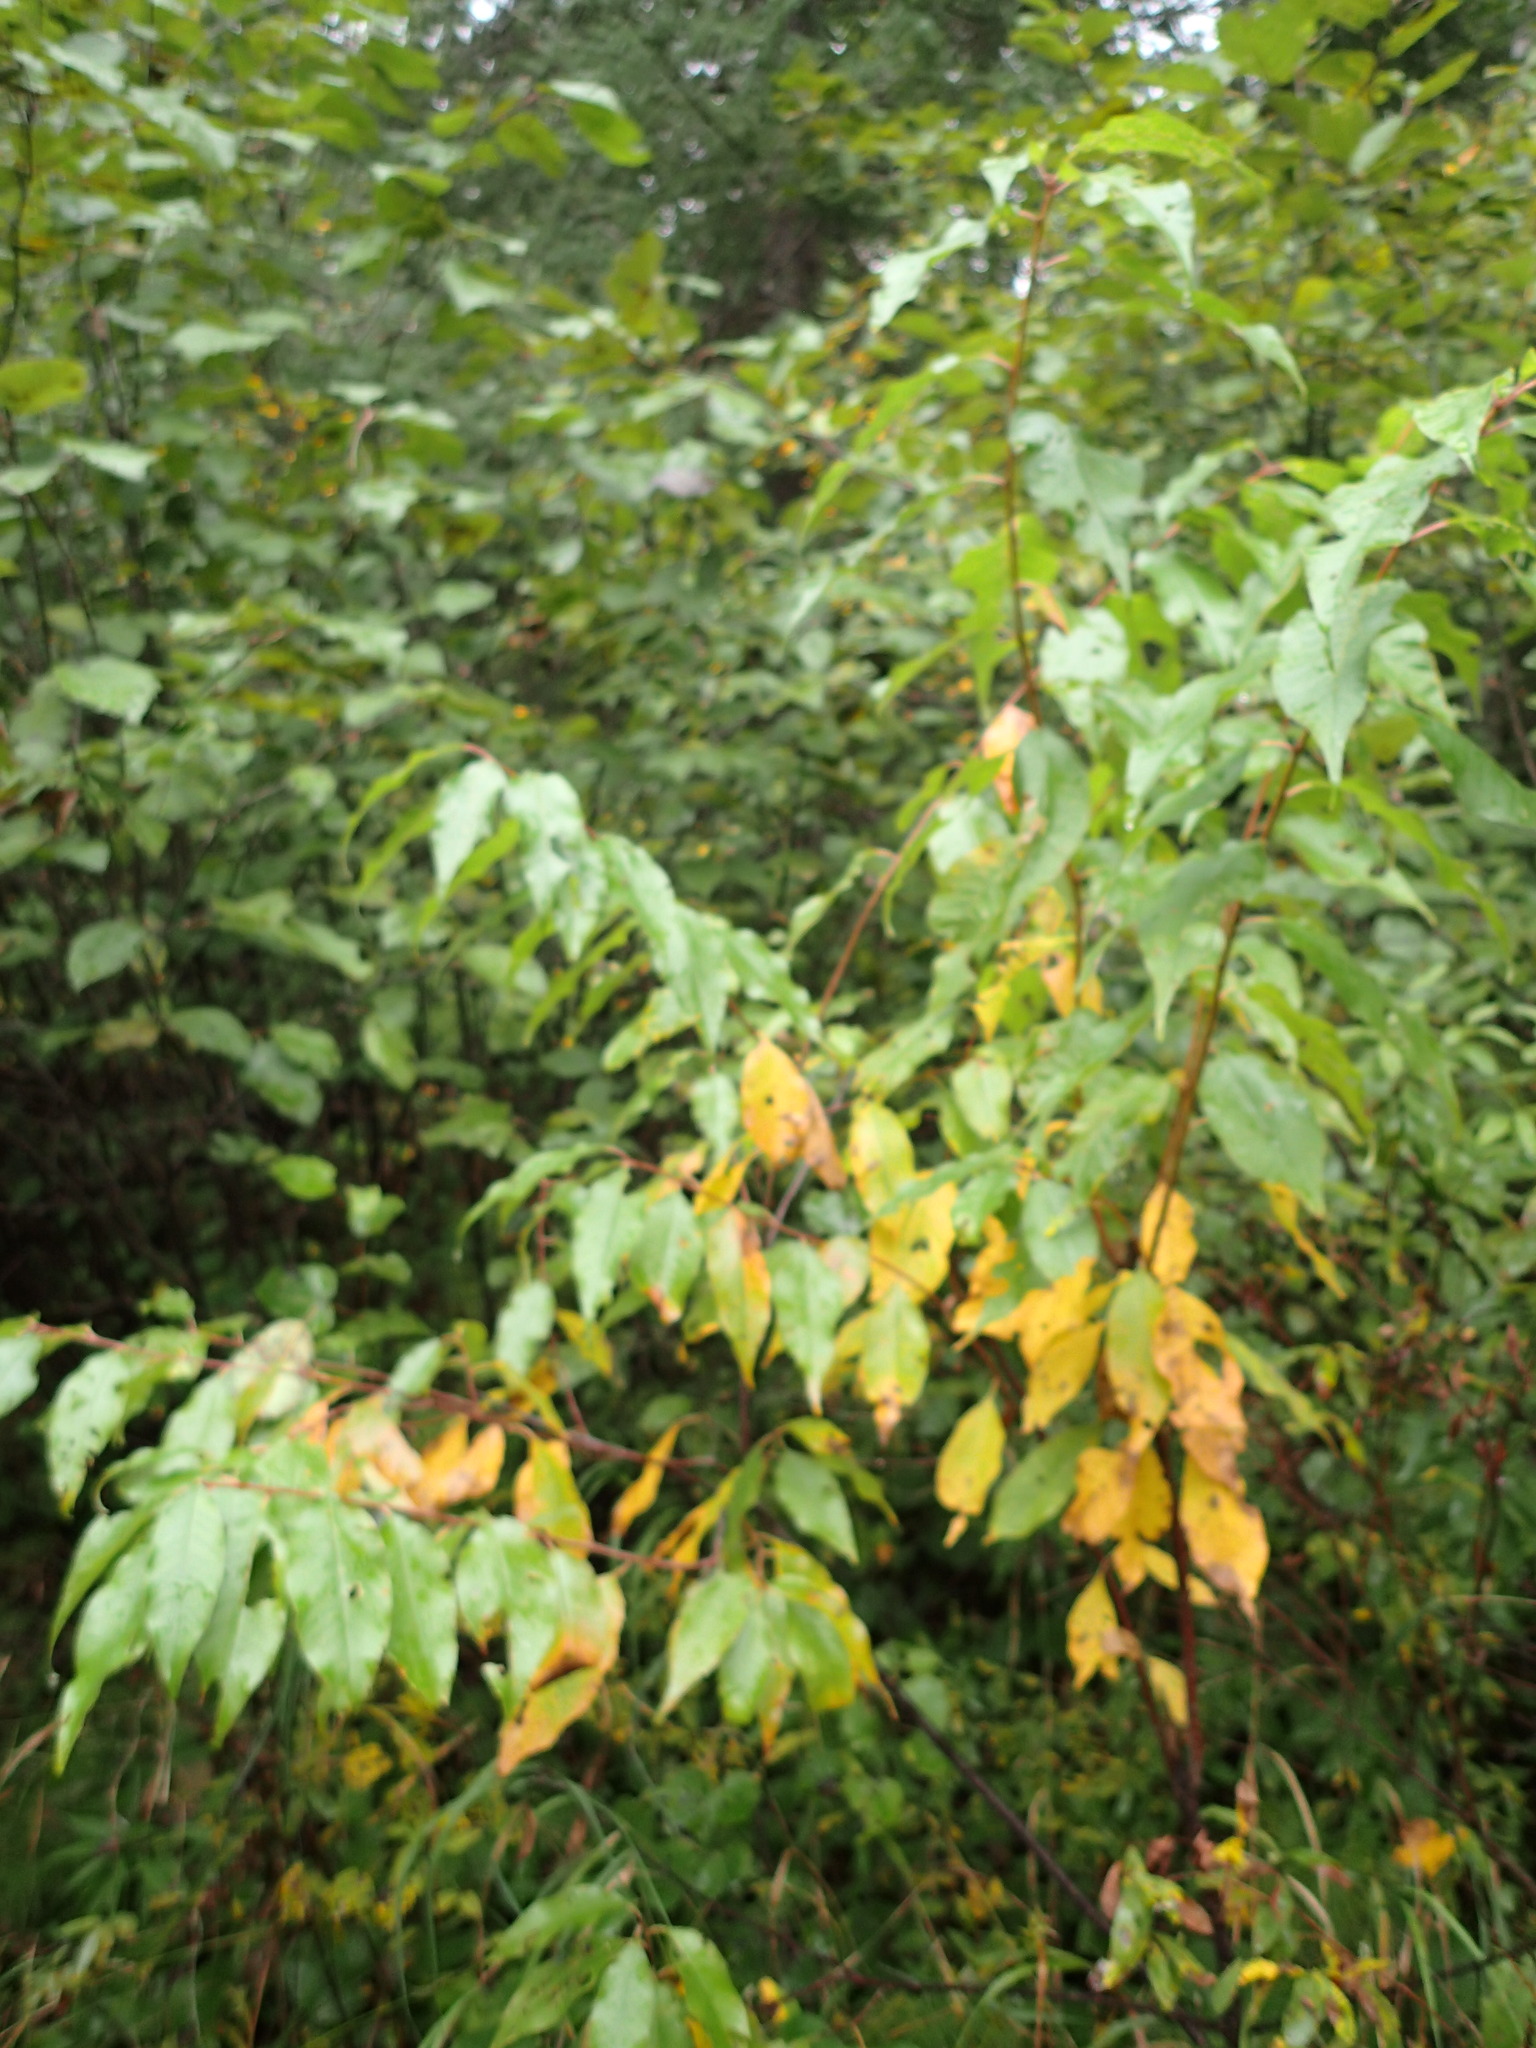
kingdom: Plantae
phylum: Tracheophyta
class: Magnoliopsida
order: Rosales
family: Rosaceae
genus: Prunus
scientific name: Prunus pensylvanica
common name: Pin cherry
